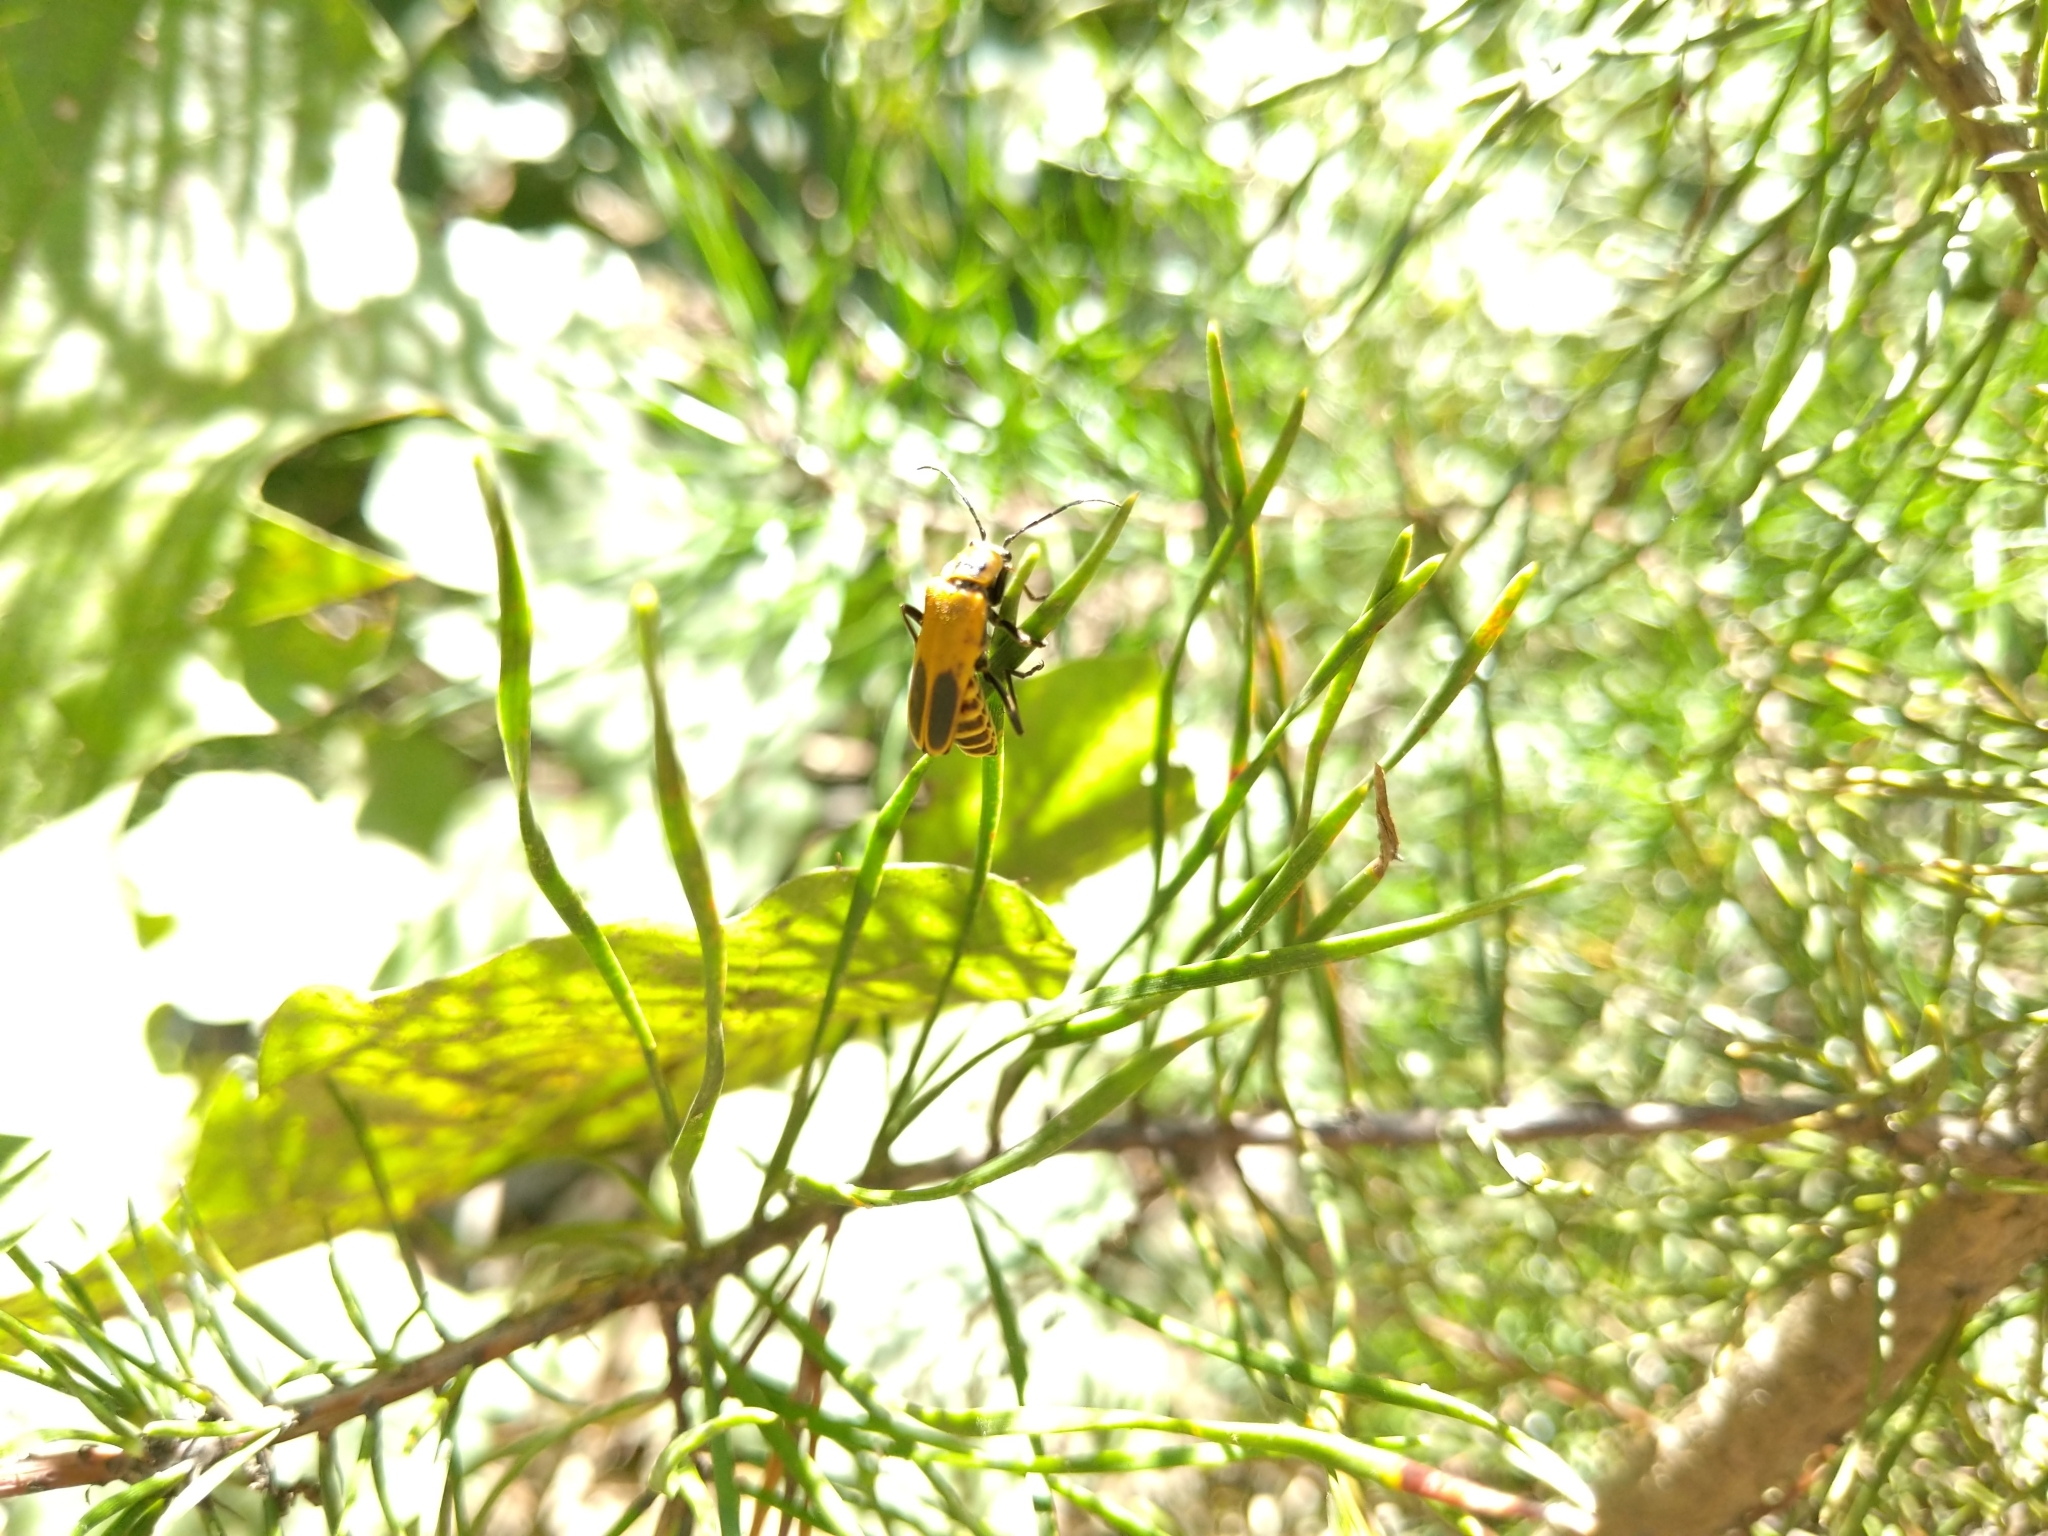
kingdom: Animalia
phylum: Arthropoda
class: Insecta
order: Coleoptera
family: Cantharidae
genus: Chauliognathus
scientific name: Chauliognathus pensylvanicus
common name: Goldenrod soldier beetle
